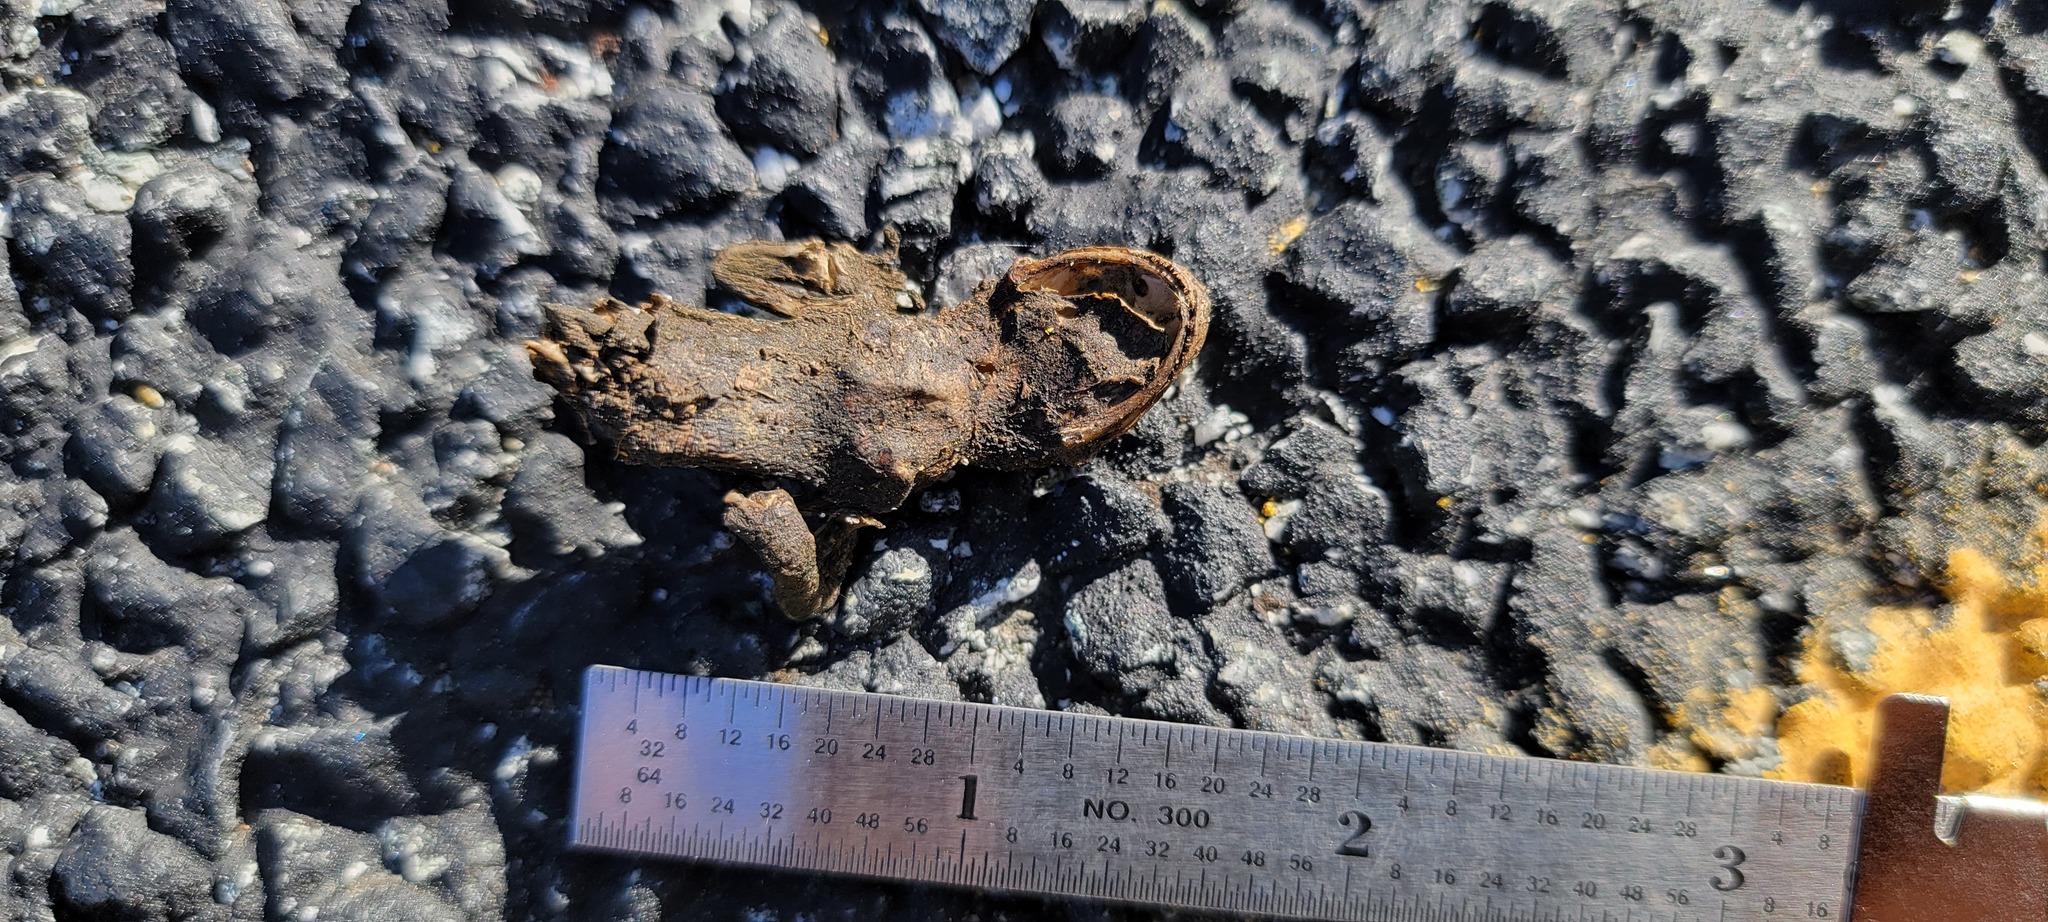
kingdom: Animalia
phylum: Chordata
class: Amphibia
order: Caudata
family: Salamandridae
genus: Taricha
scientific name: Taricha
